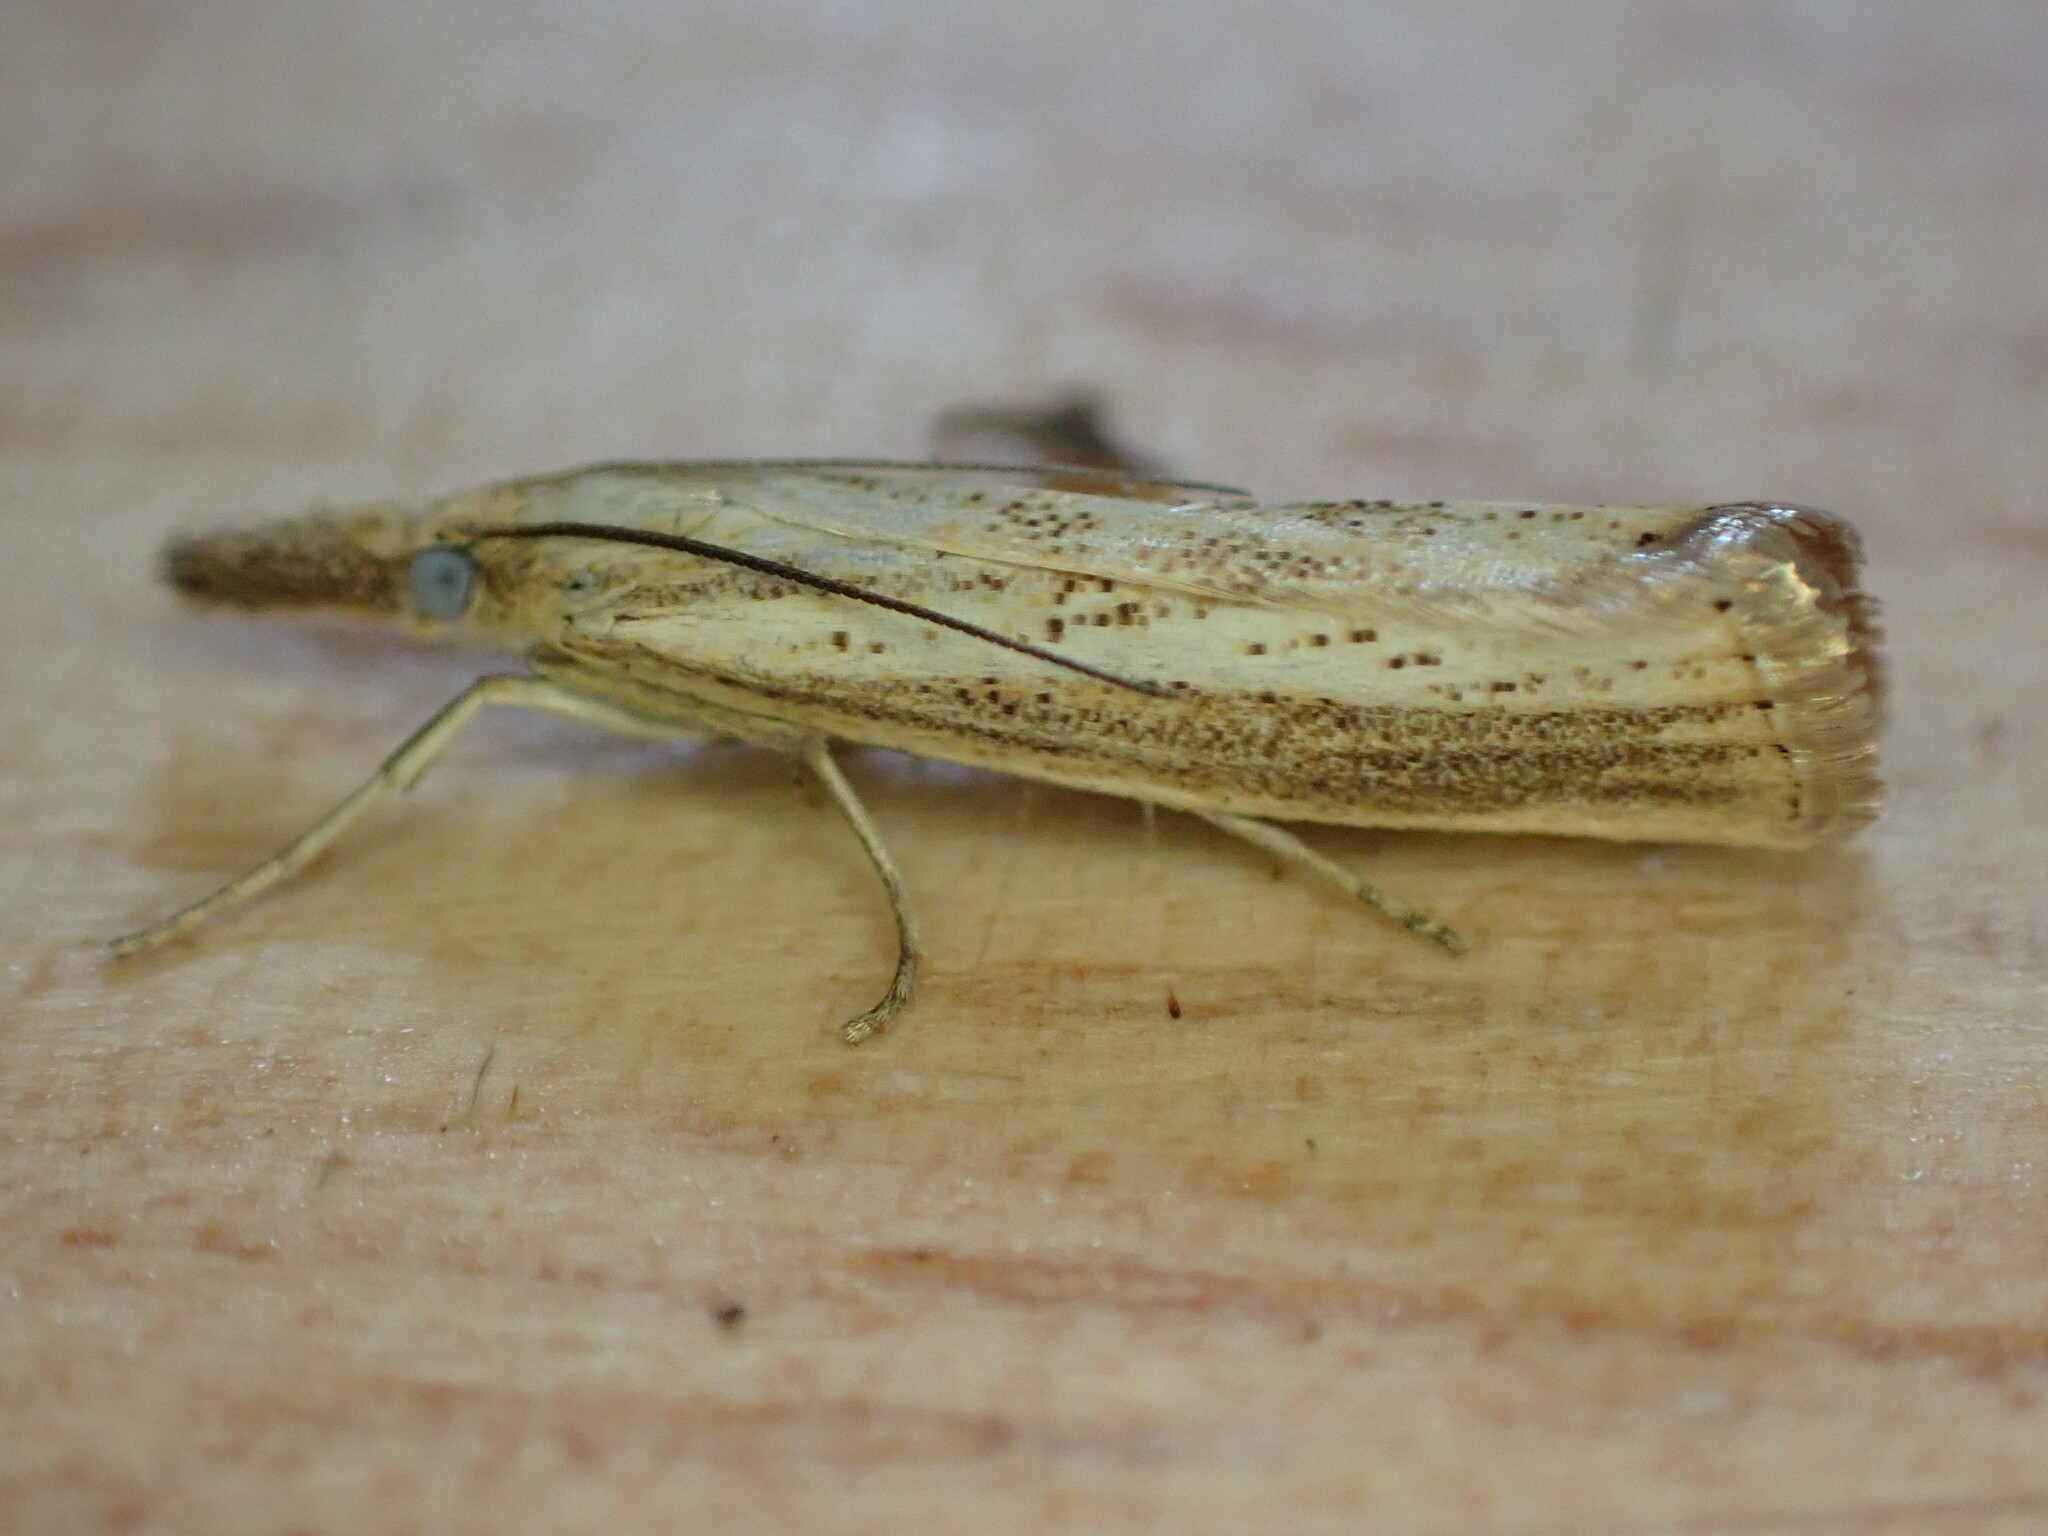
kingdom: Animalia
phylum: Arthropoda
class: Insecta
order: Lepidoptera
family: Crambidae
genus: Agriphila
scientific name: Agriphila straminella
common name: Straw grass-veneer
